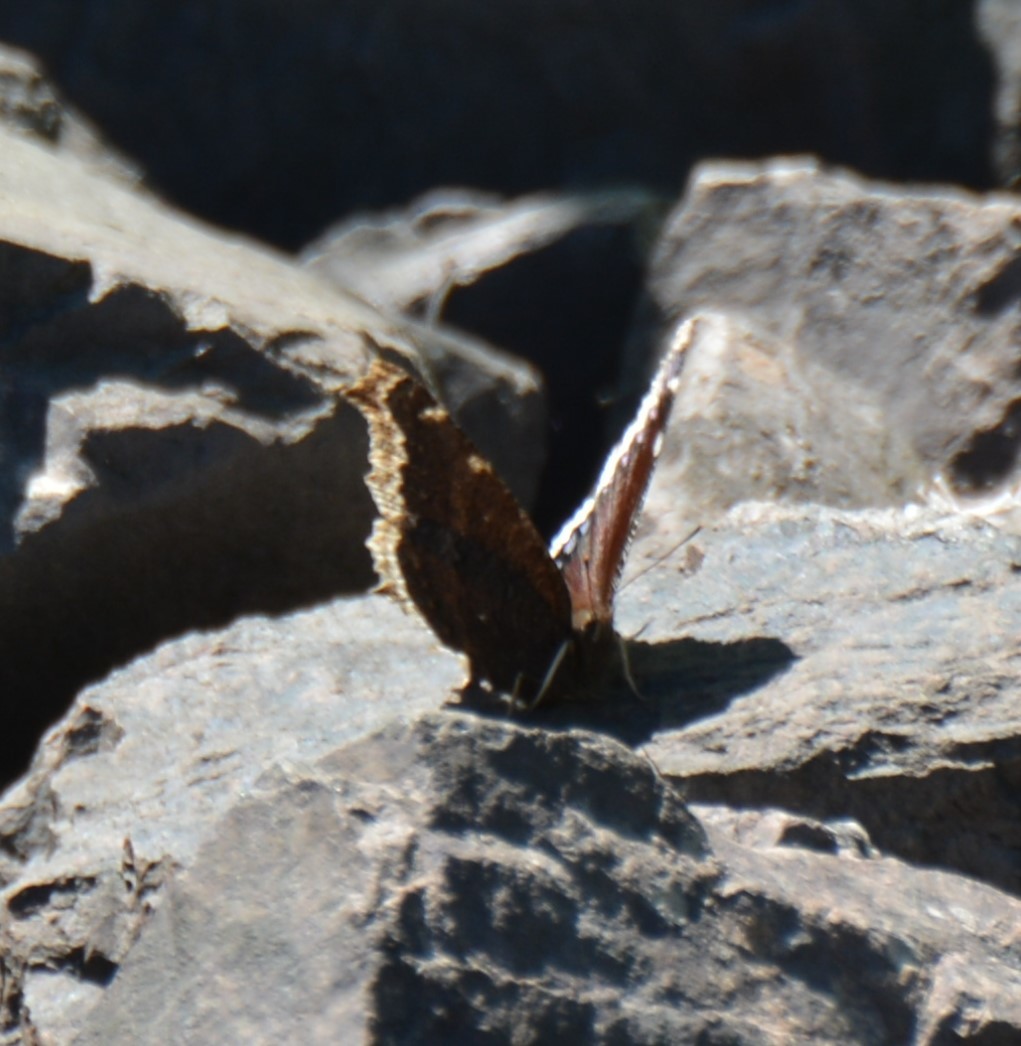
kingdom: Animalia
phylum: Arthropoda
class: Insecta
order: Lepidoptera
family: Nymphalidae
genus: Nymphalis
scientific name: Nymphalis antiopa
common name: Camberwell beauty
